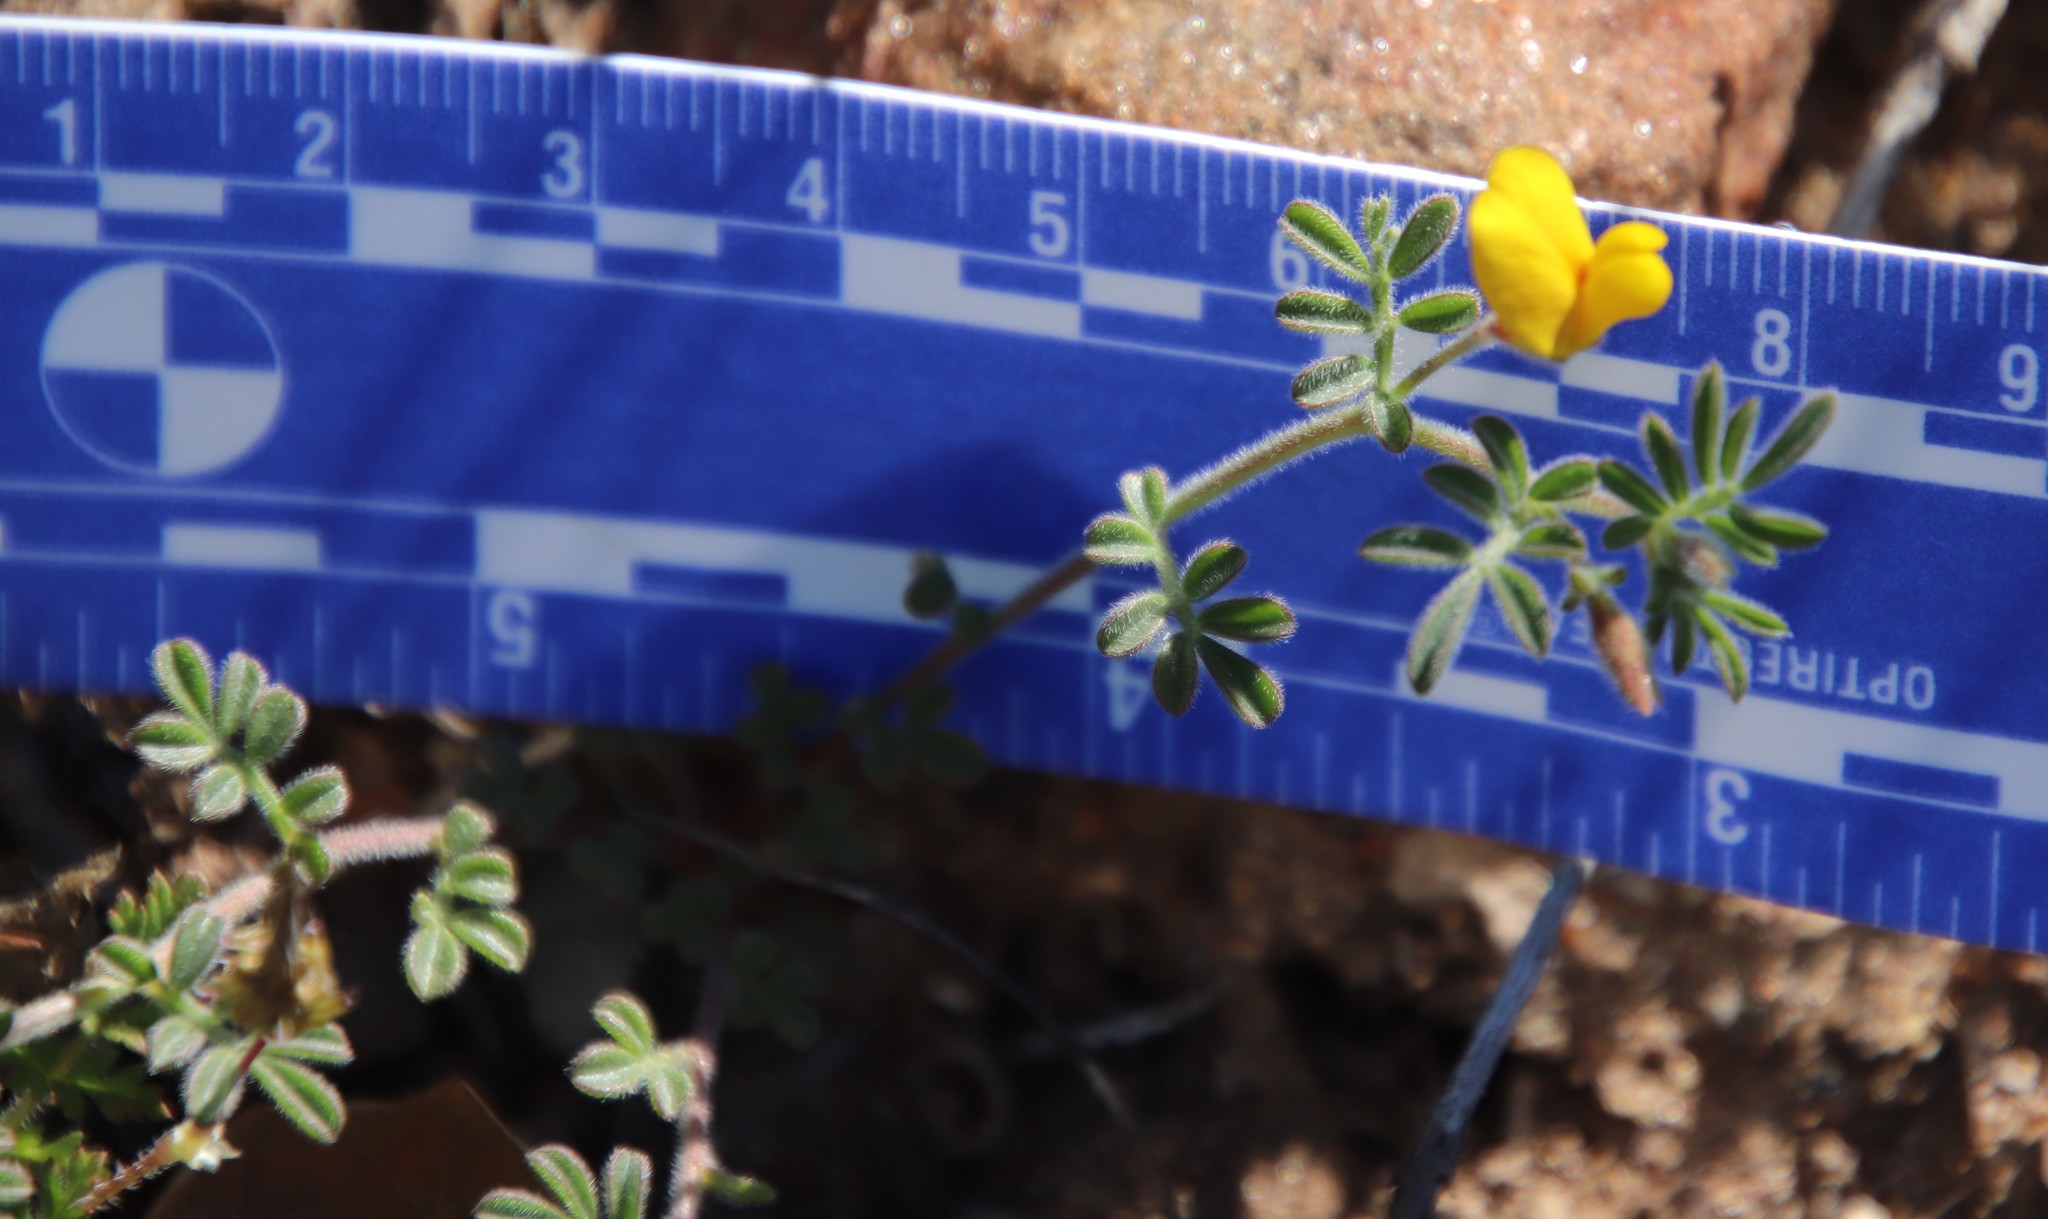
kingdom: Plantae
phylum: Tracheophyta
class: Magnoliopsida
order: Fabales
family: Fabaceae
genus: Acmispon
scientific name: Acmispon strigosus
